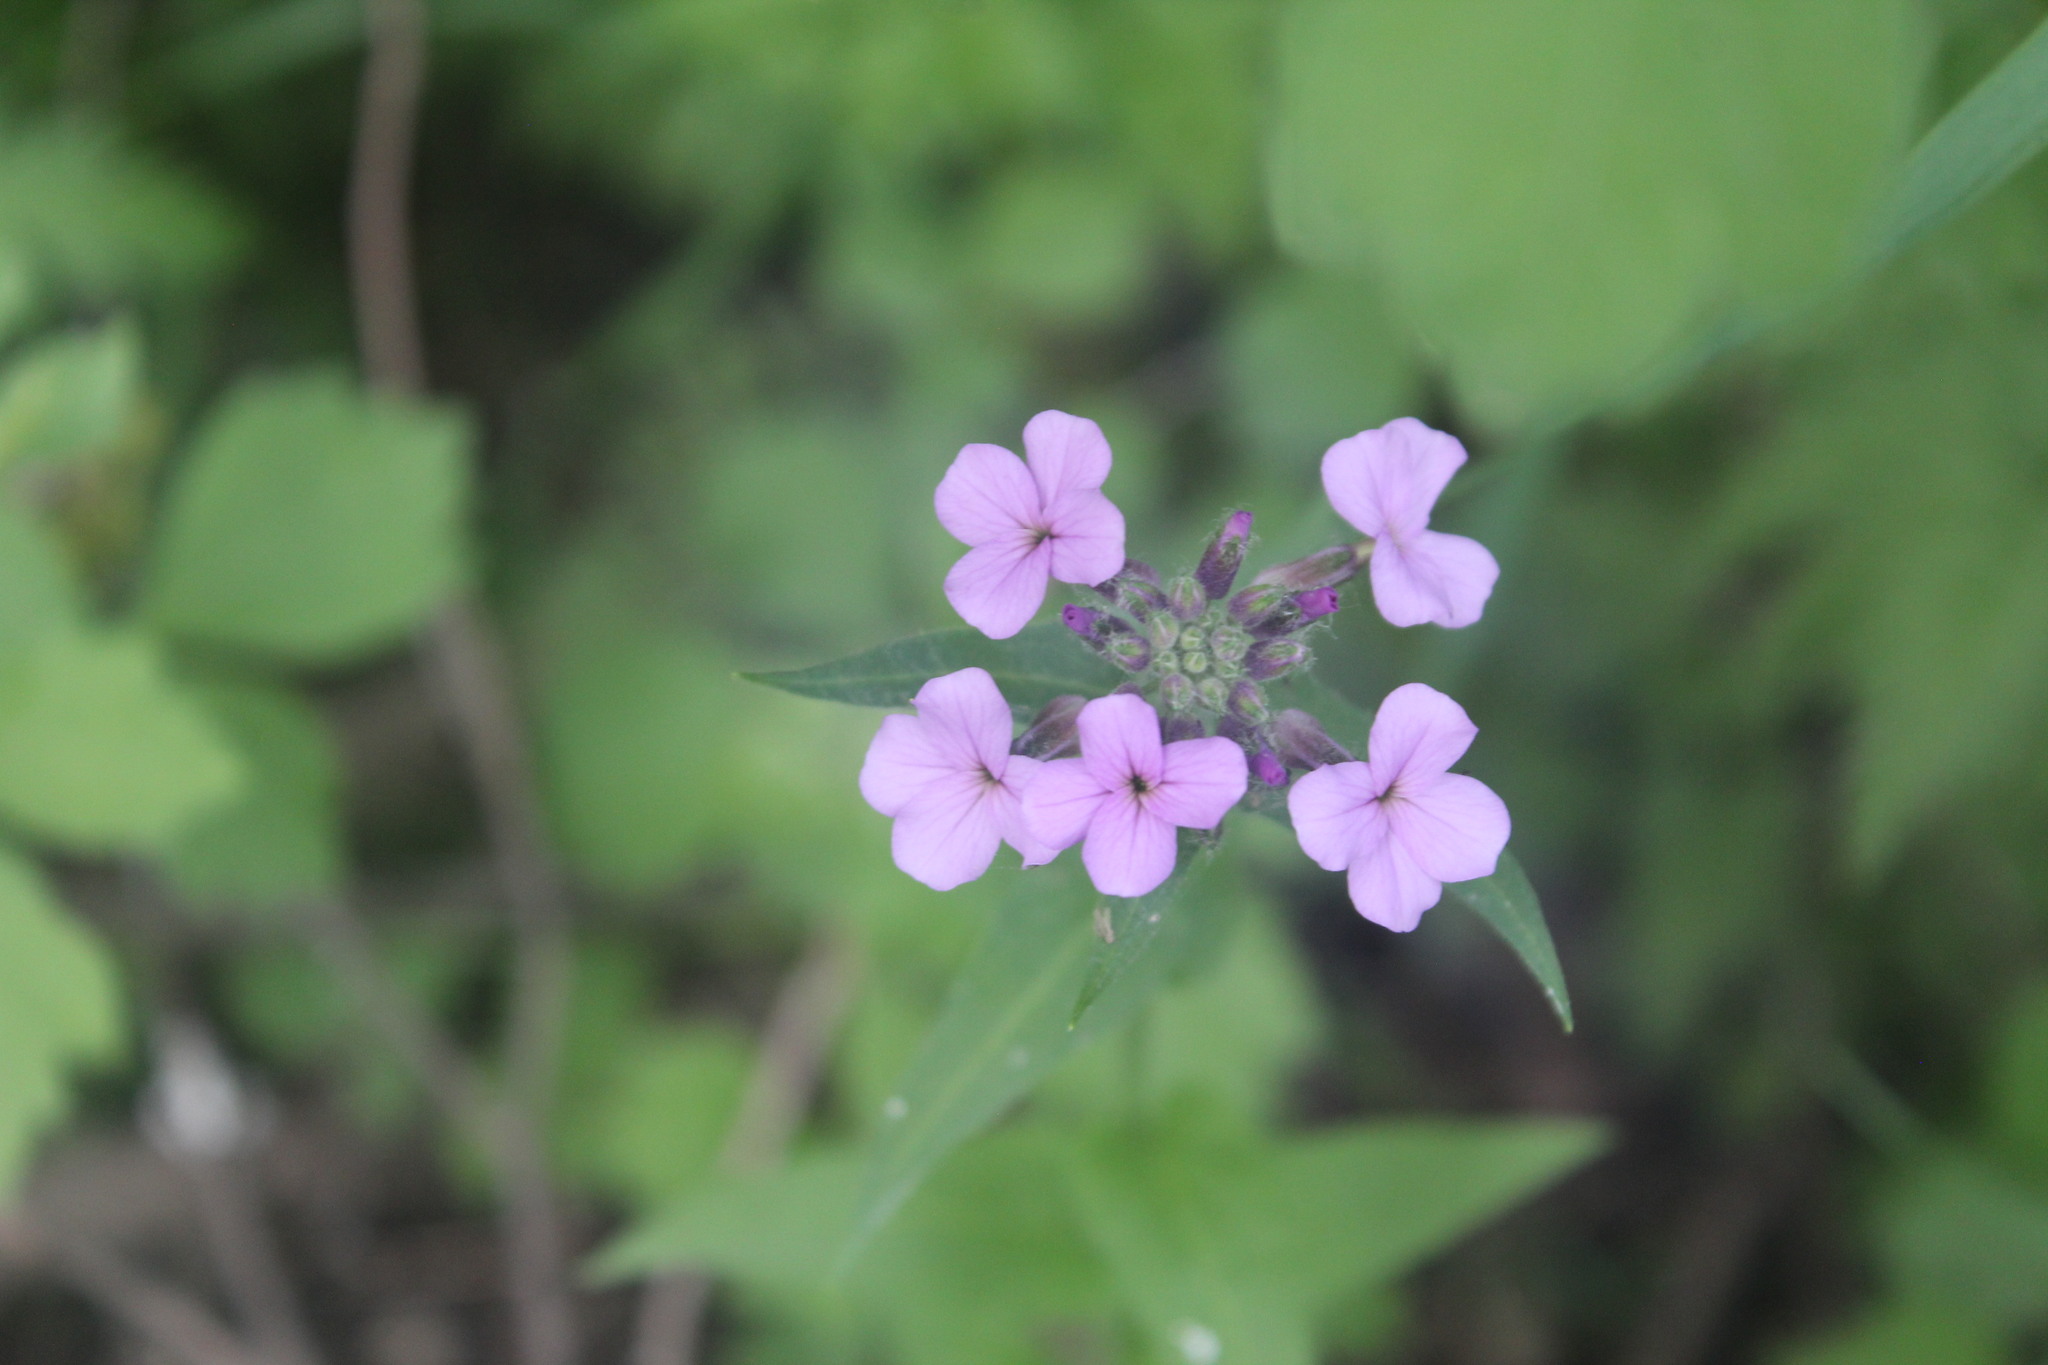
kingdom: Plantae
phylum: Tracheophyta
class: Magnoliopsida
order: Brassicales
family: Brassicaceae
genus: Hesperis
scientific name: Hesperis matronalis
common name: Dame's-violet
